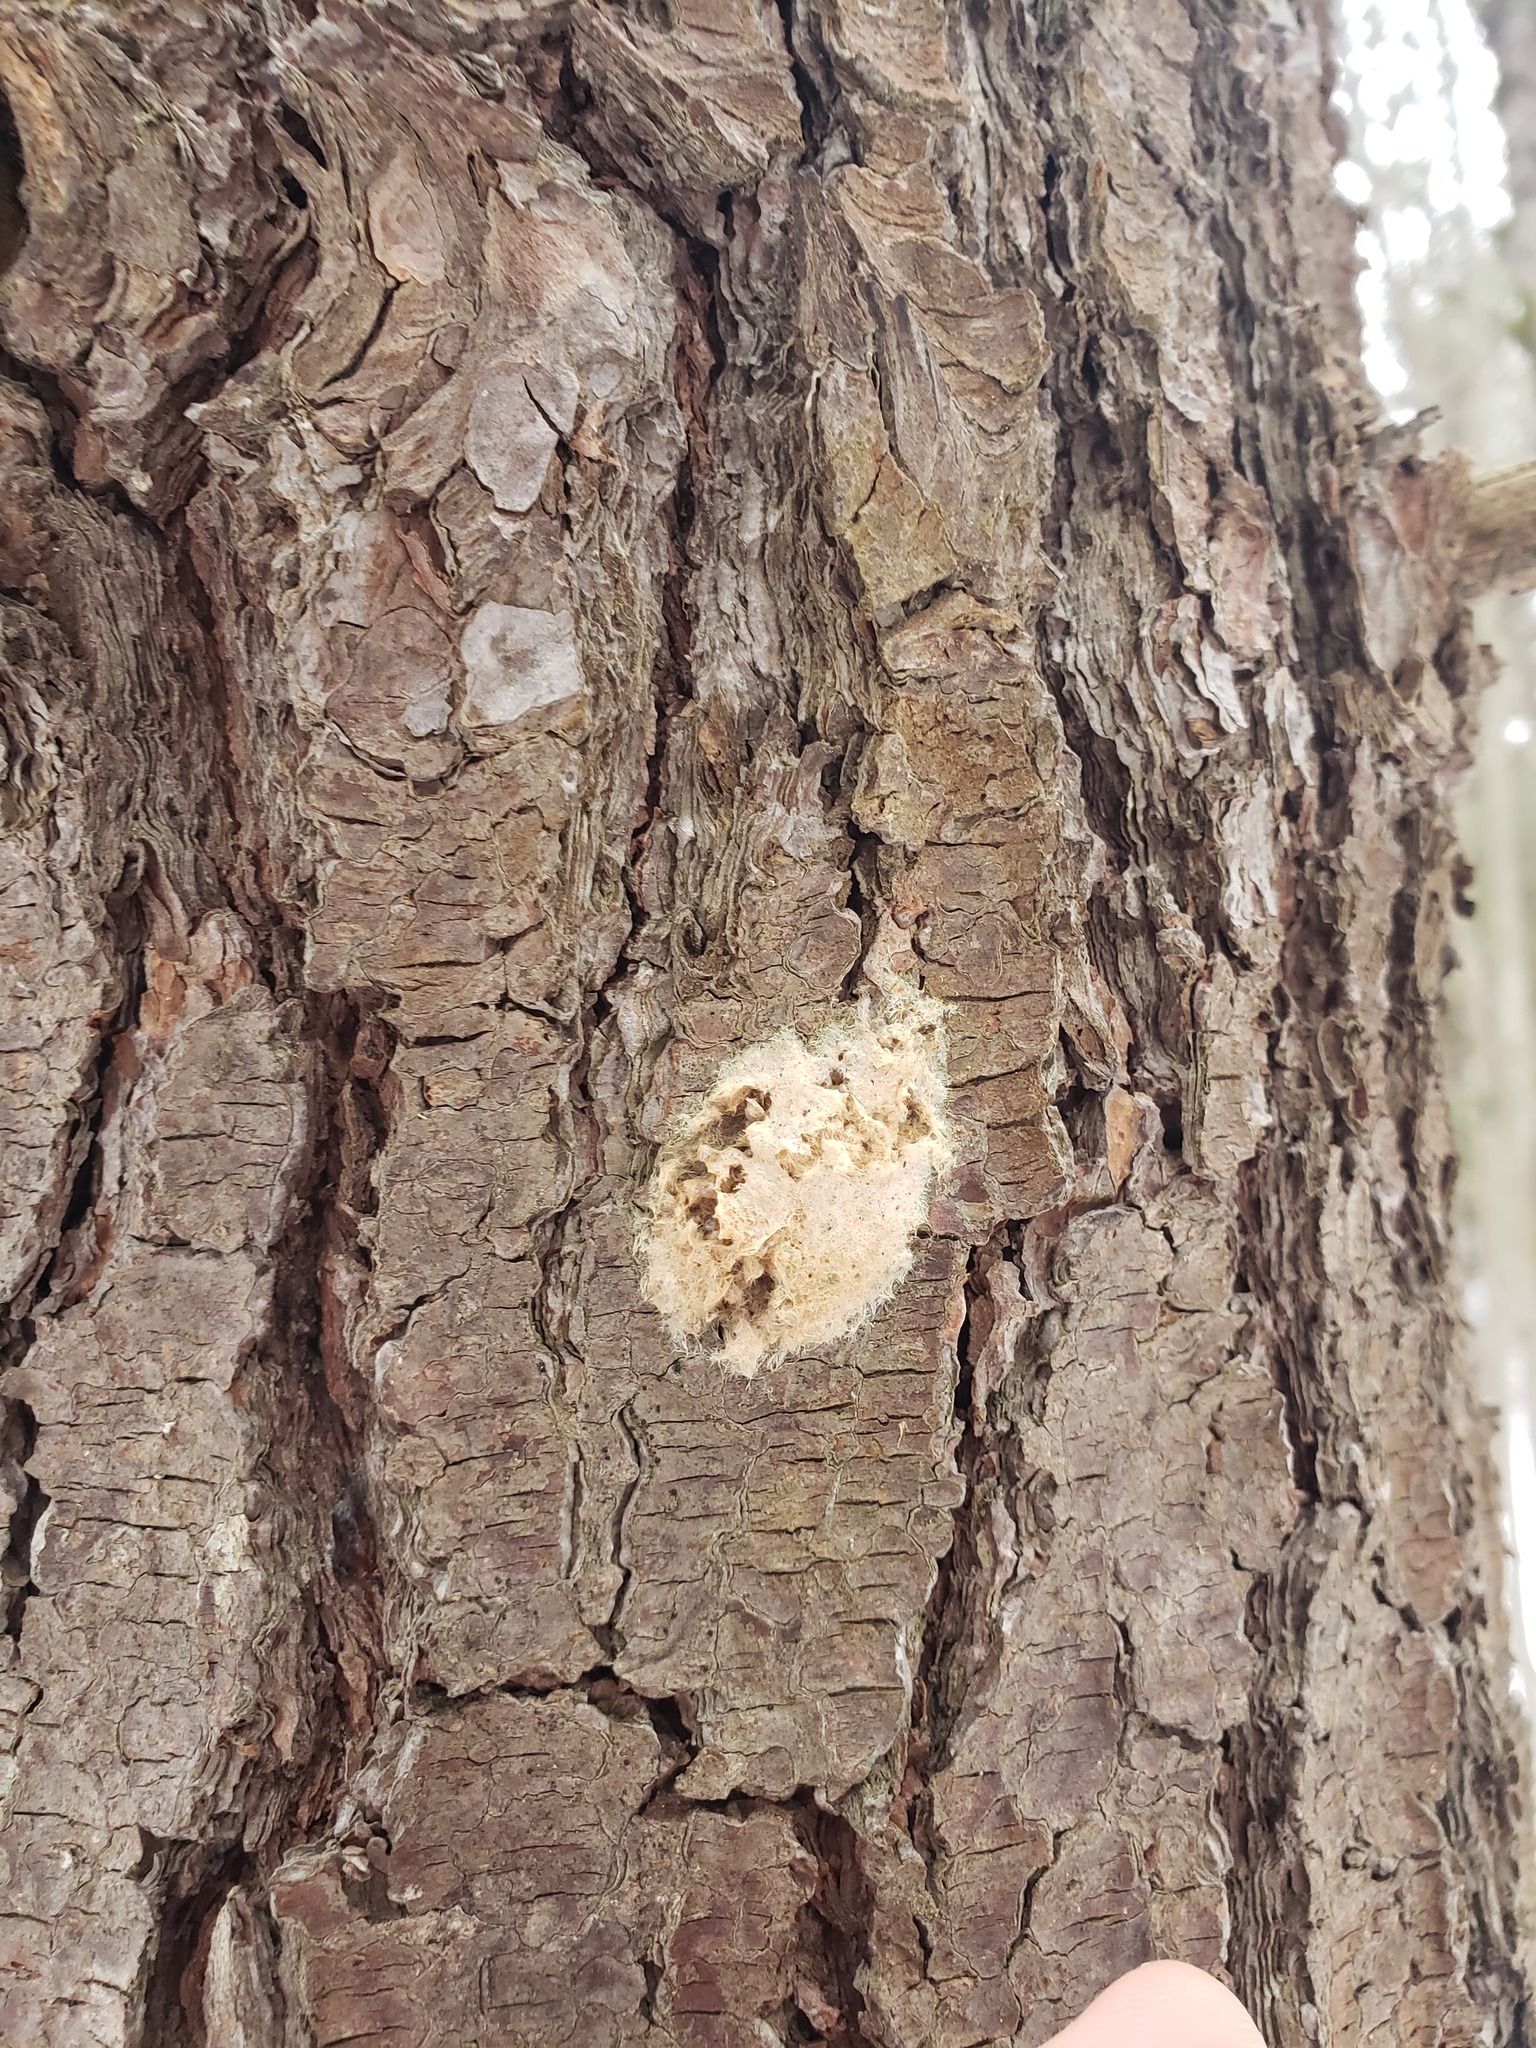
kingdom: Animalia
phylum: Arthropoda
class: Insecta
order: Lepidoptera
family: Erebidae
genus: Lymantria
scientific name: Lymantria dispar
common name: Gypsy moth
